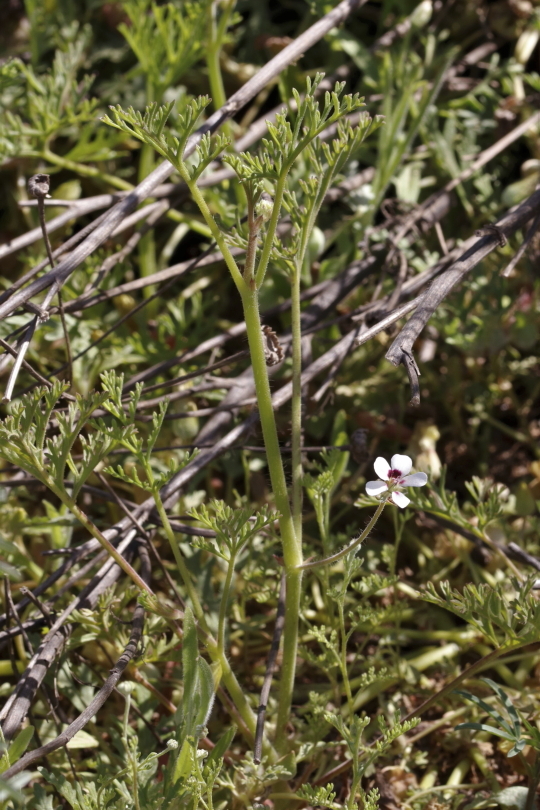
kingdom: Plantae
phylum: Tracheophyta
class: Magnoliopsida
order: Geraniales
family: Geraniaceae
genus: Pelargonium
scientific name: Pelargonium senecioides
